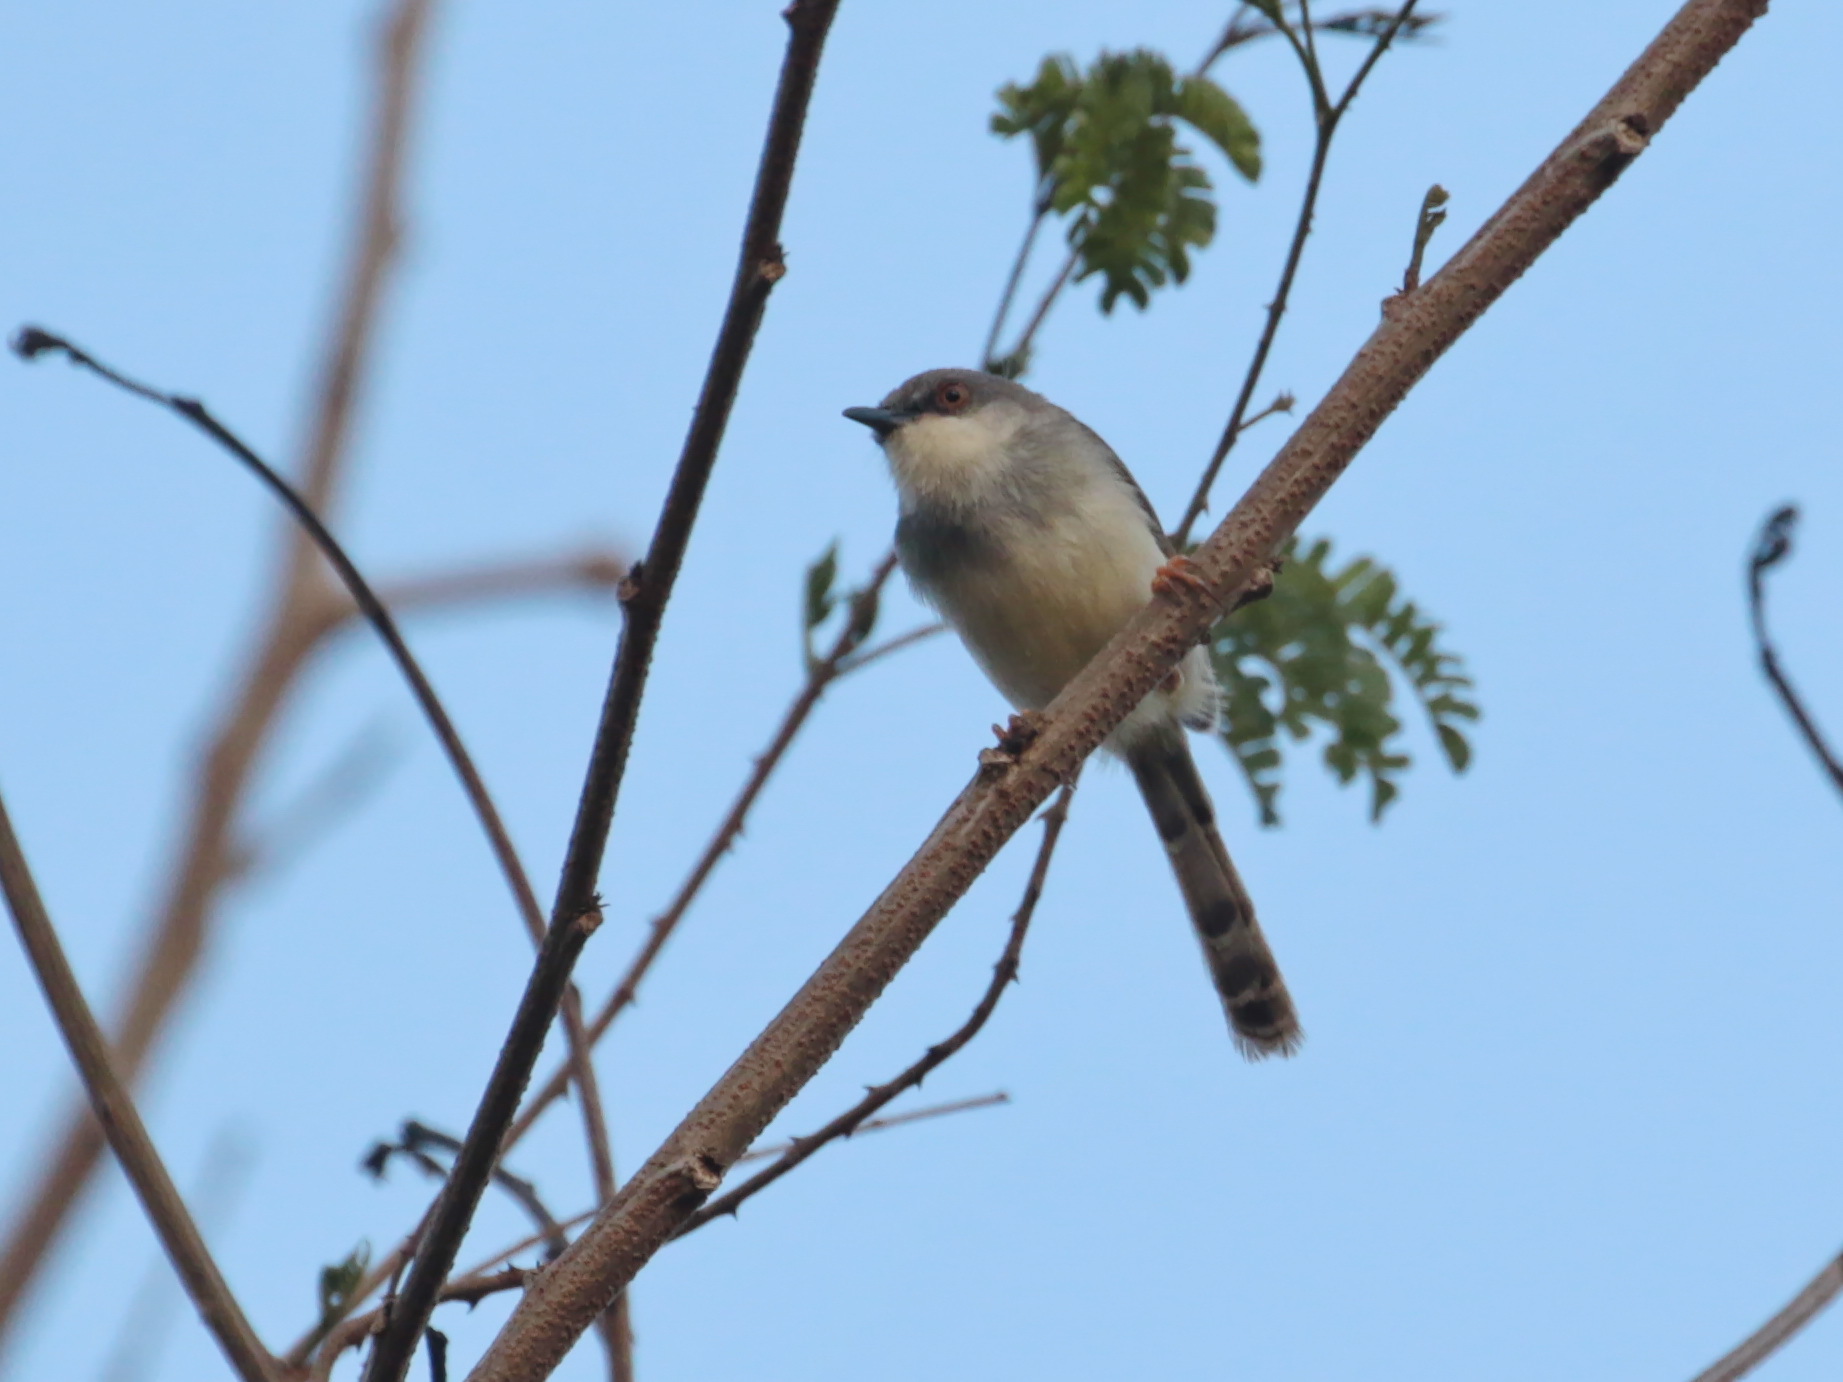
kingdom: Animalia
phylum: Chordata
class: Aves
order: Passeriformes
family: Cisticolidae
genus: Prinia
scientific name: Prinia hodgsonii
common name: Grey-breasted prinia
